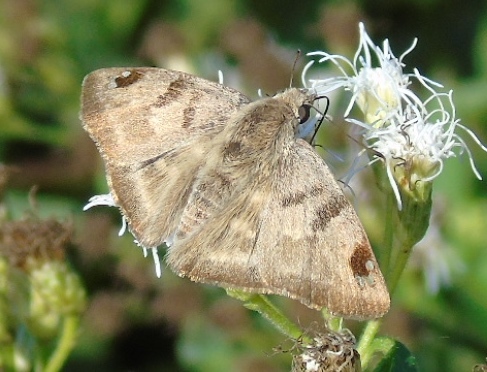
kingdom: Animalia
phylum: Arthropoda
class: Insecta
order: Lepidoptera
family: Hesperiidae
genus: Arteurotia
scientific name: Arteurotia tractipennis
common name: Starred skipper
